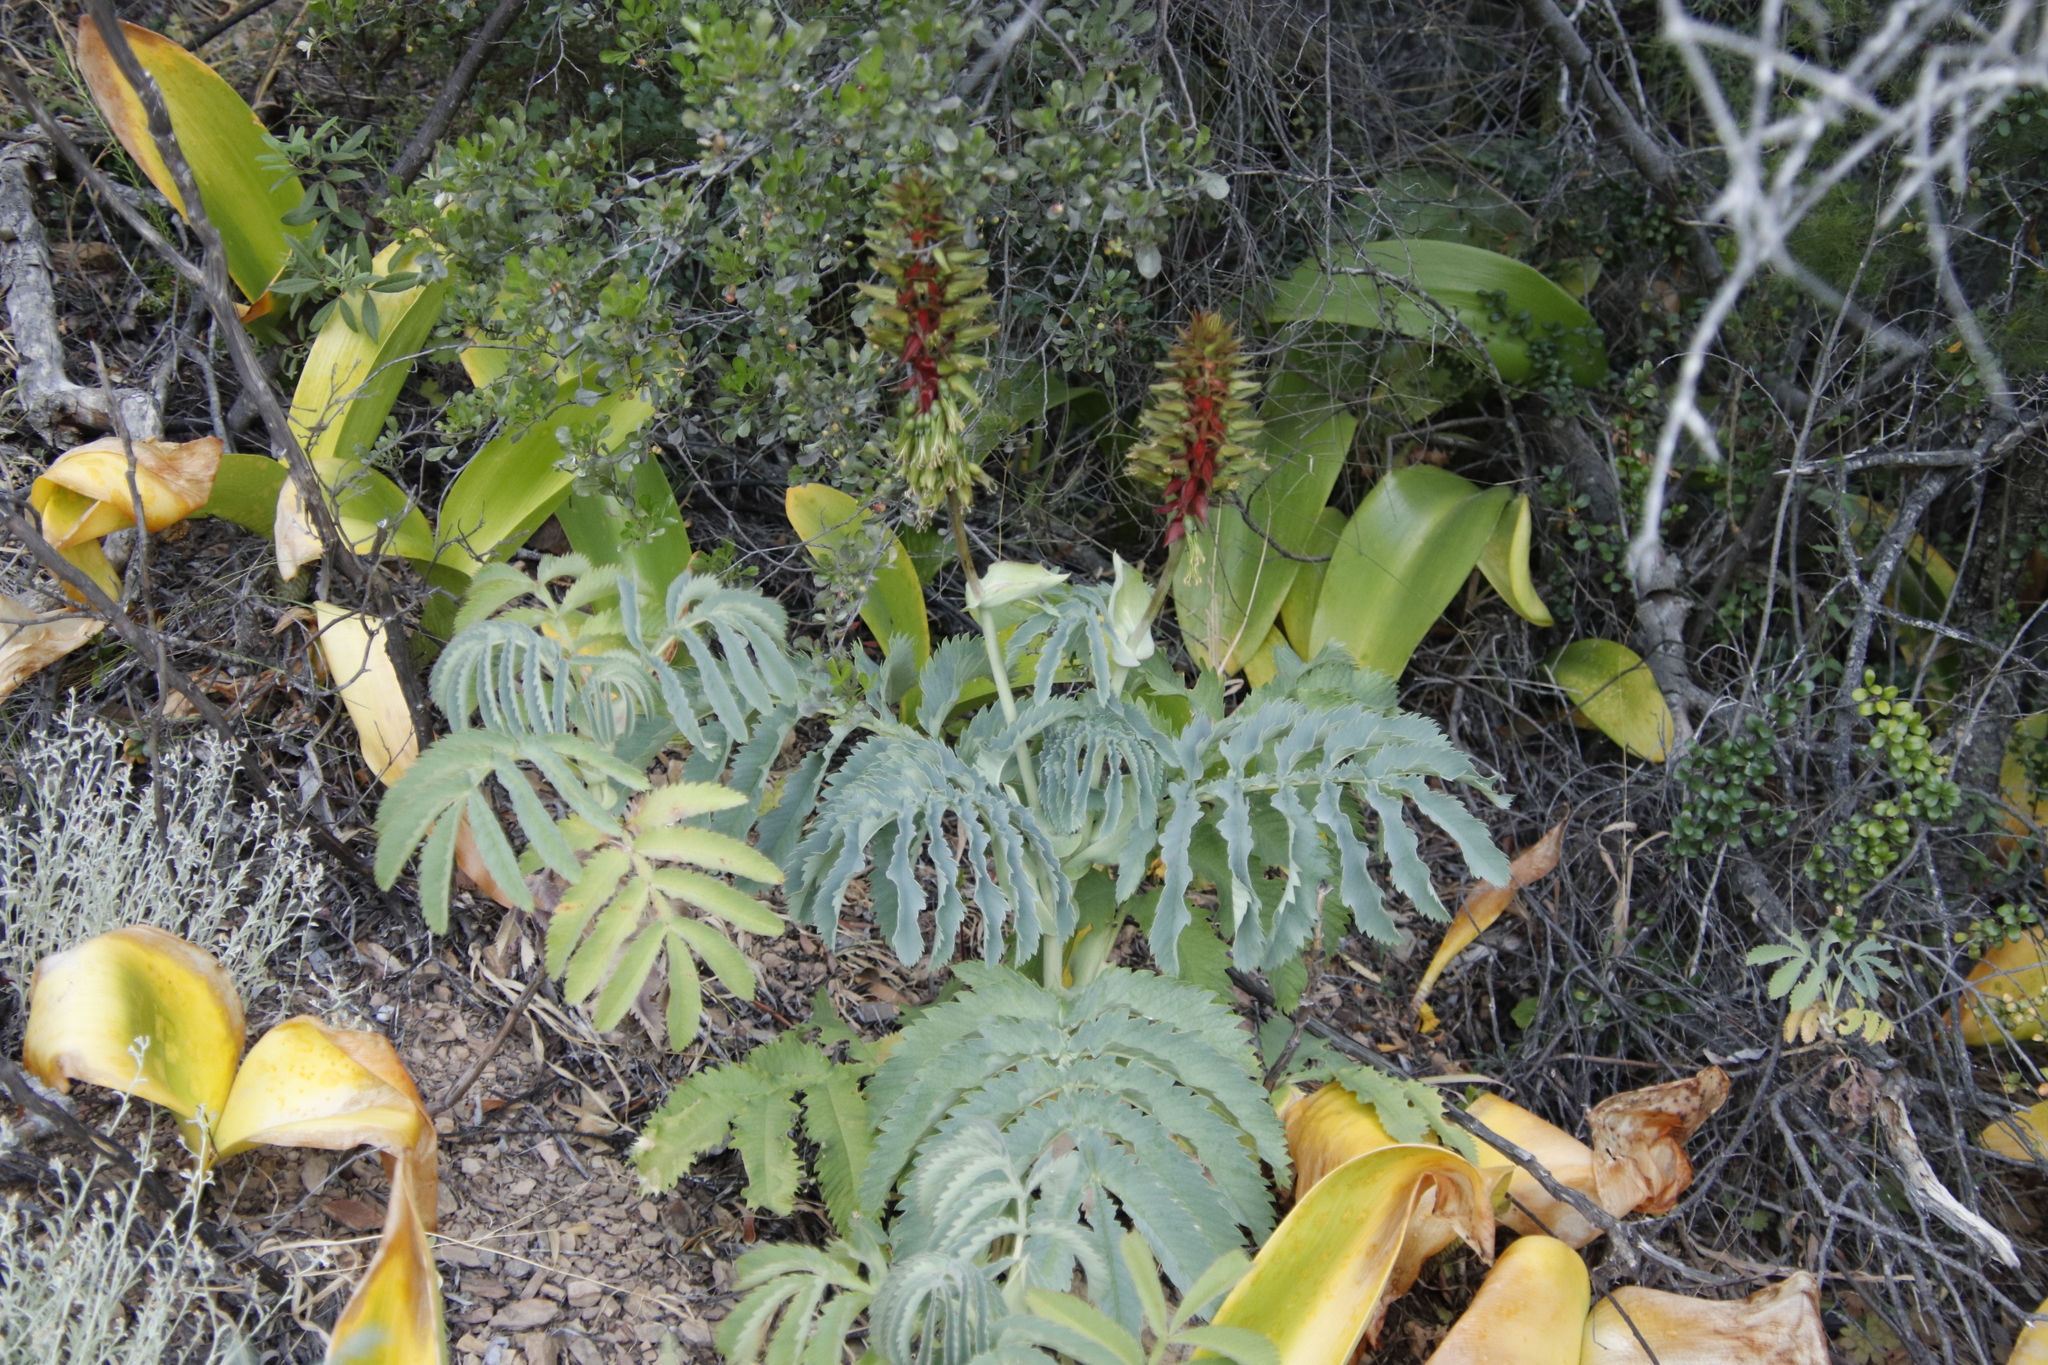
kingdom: Plantae
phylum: Tracheophyta
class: Magnoliopsida
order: Geraniales
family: Melianthaceae
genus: Melianthus
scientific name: Melianthus major
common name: Honey-flower
